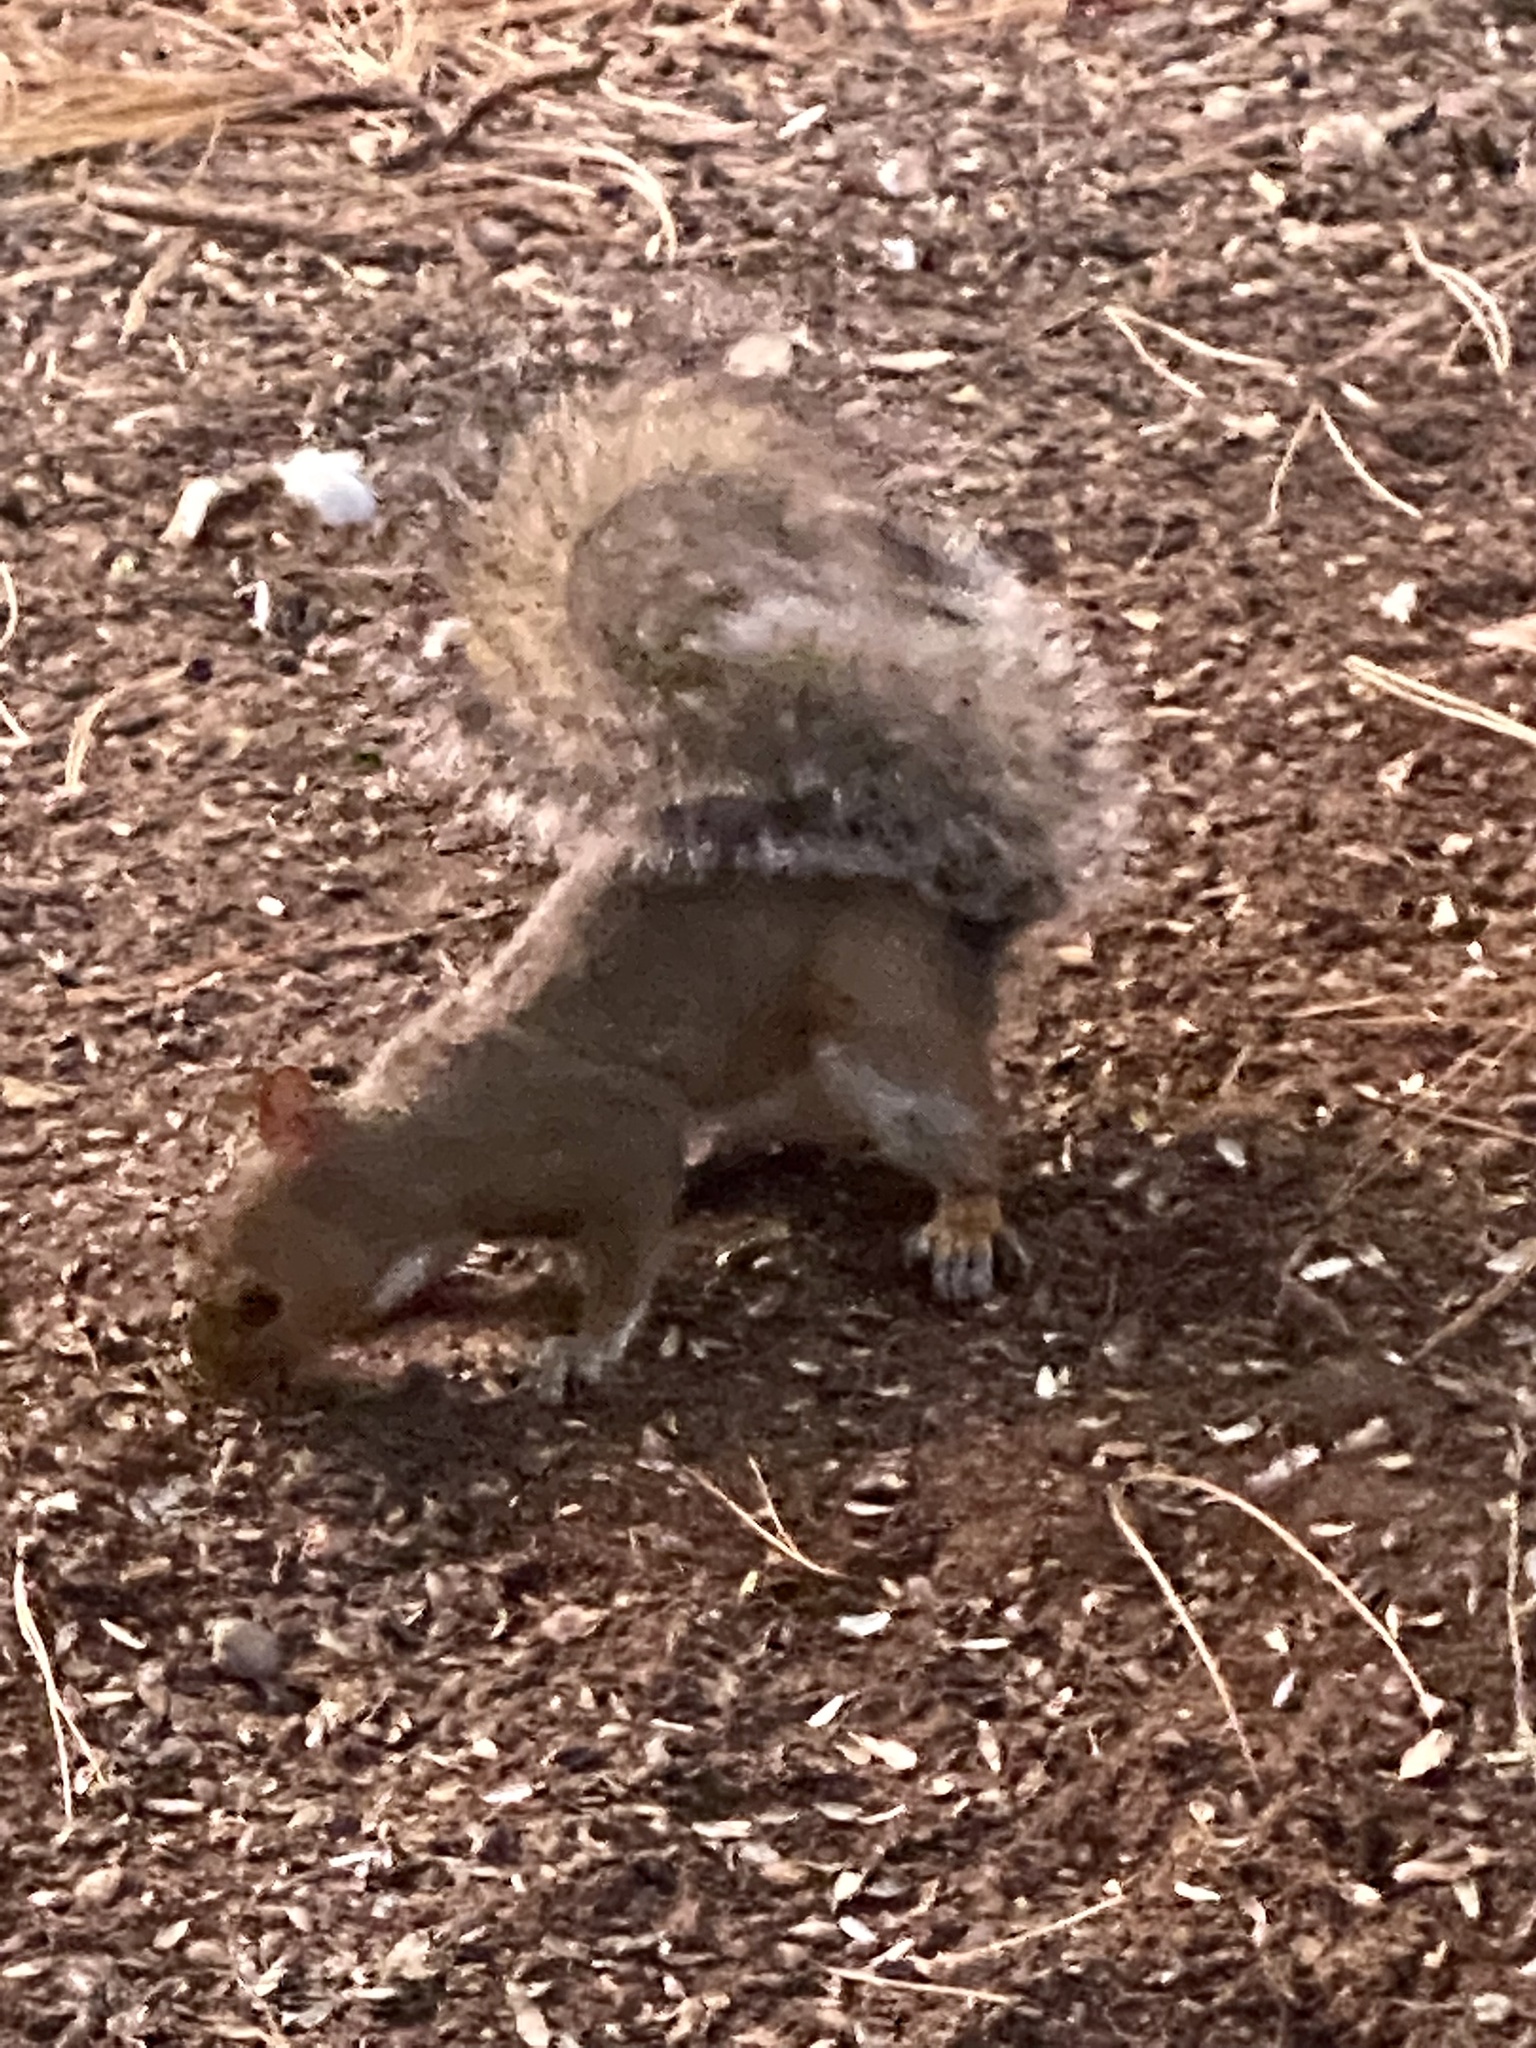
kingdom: Animalia
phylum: Chordata
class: Mammalia
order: Rodentia
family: Sciuridae
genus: Sciurus
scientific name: Sciurus carolinensis
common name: Eastern gray squirrel
